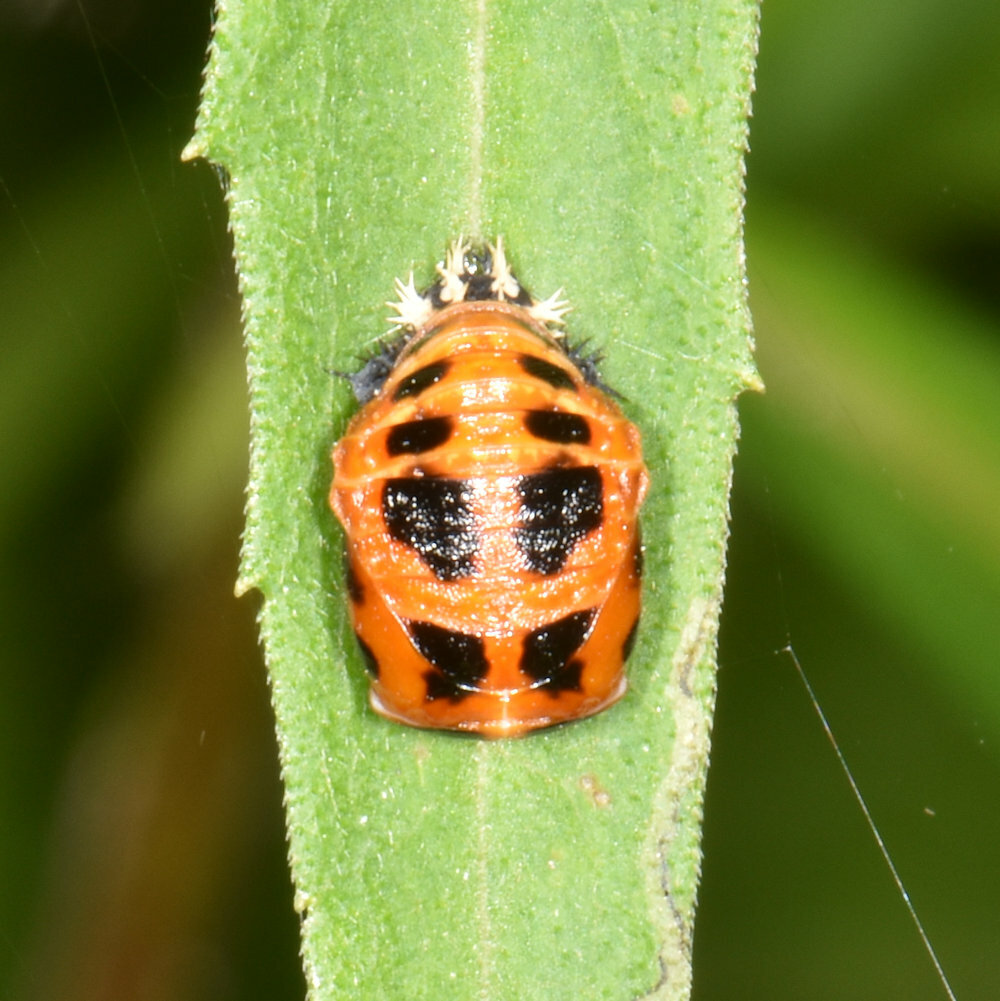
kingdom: Animalia
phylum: Arthropoda
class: Insecta
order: Coleoptera
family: Coccinellidae
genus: Harmonia
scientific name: Harmonia axyridis
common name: Harlequin ladybird
